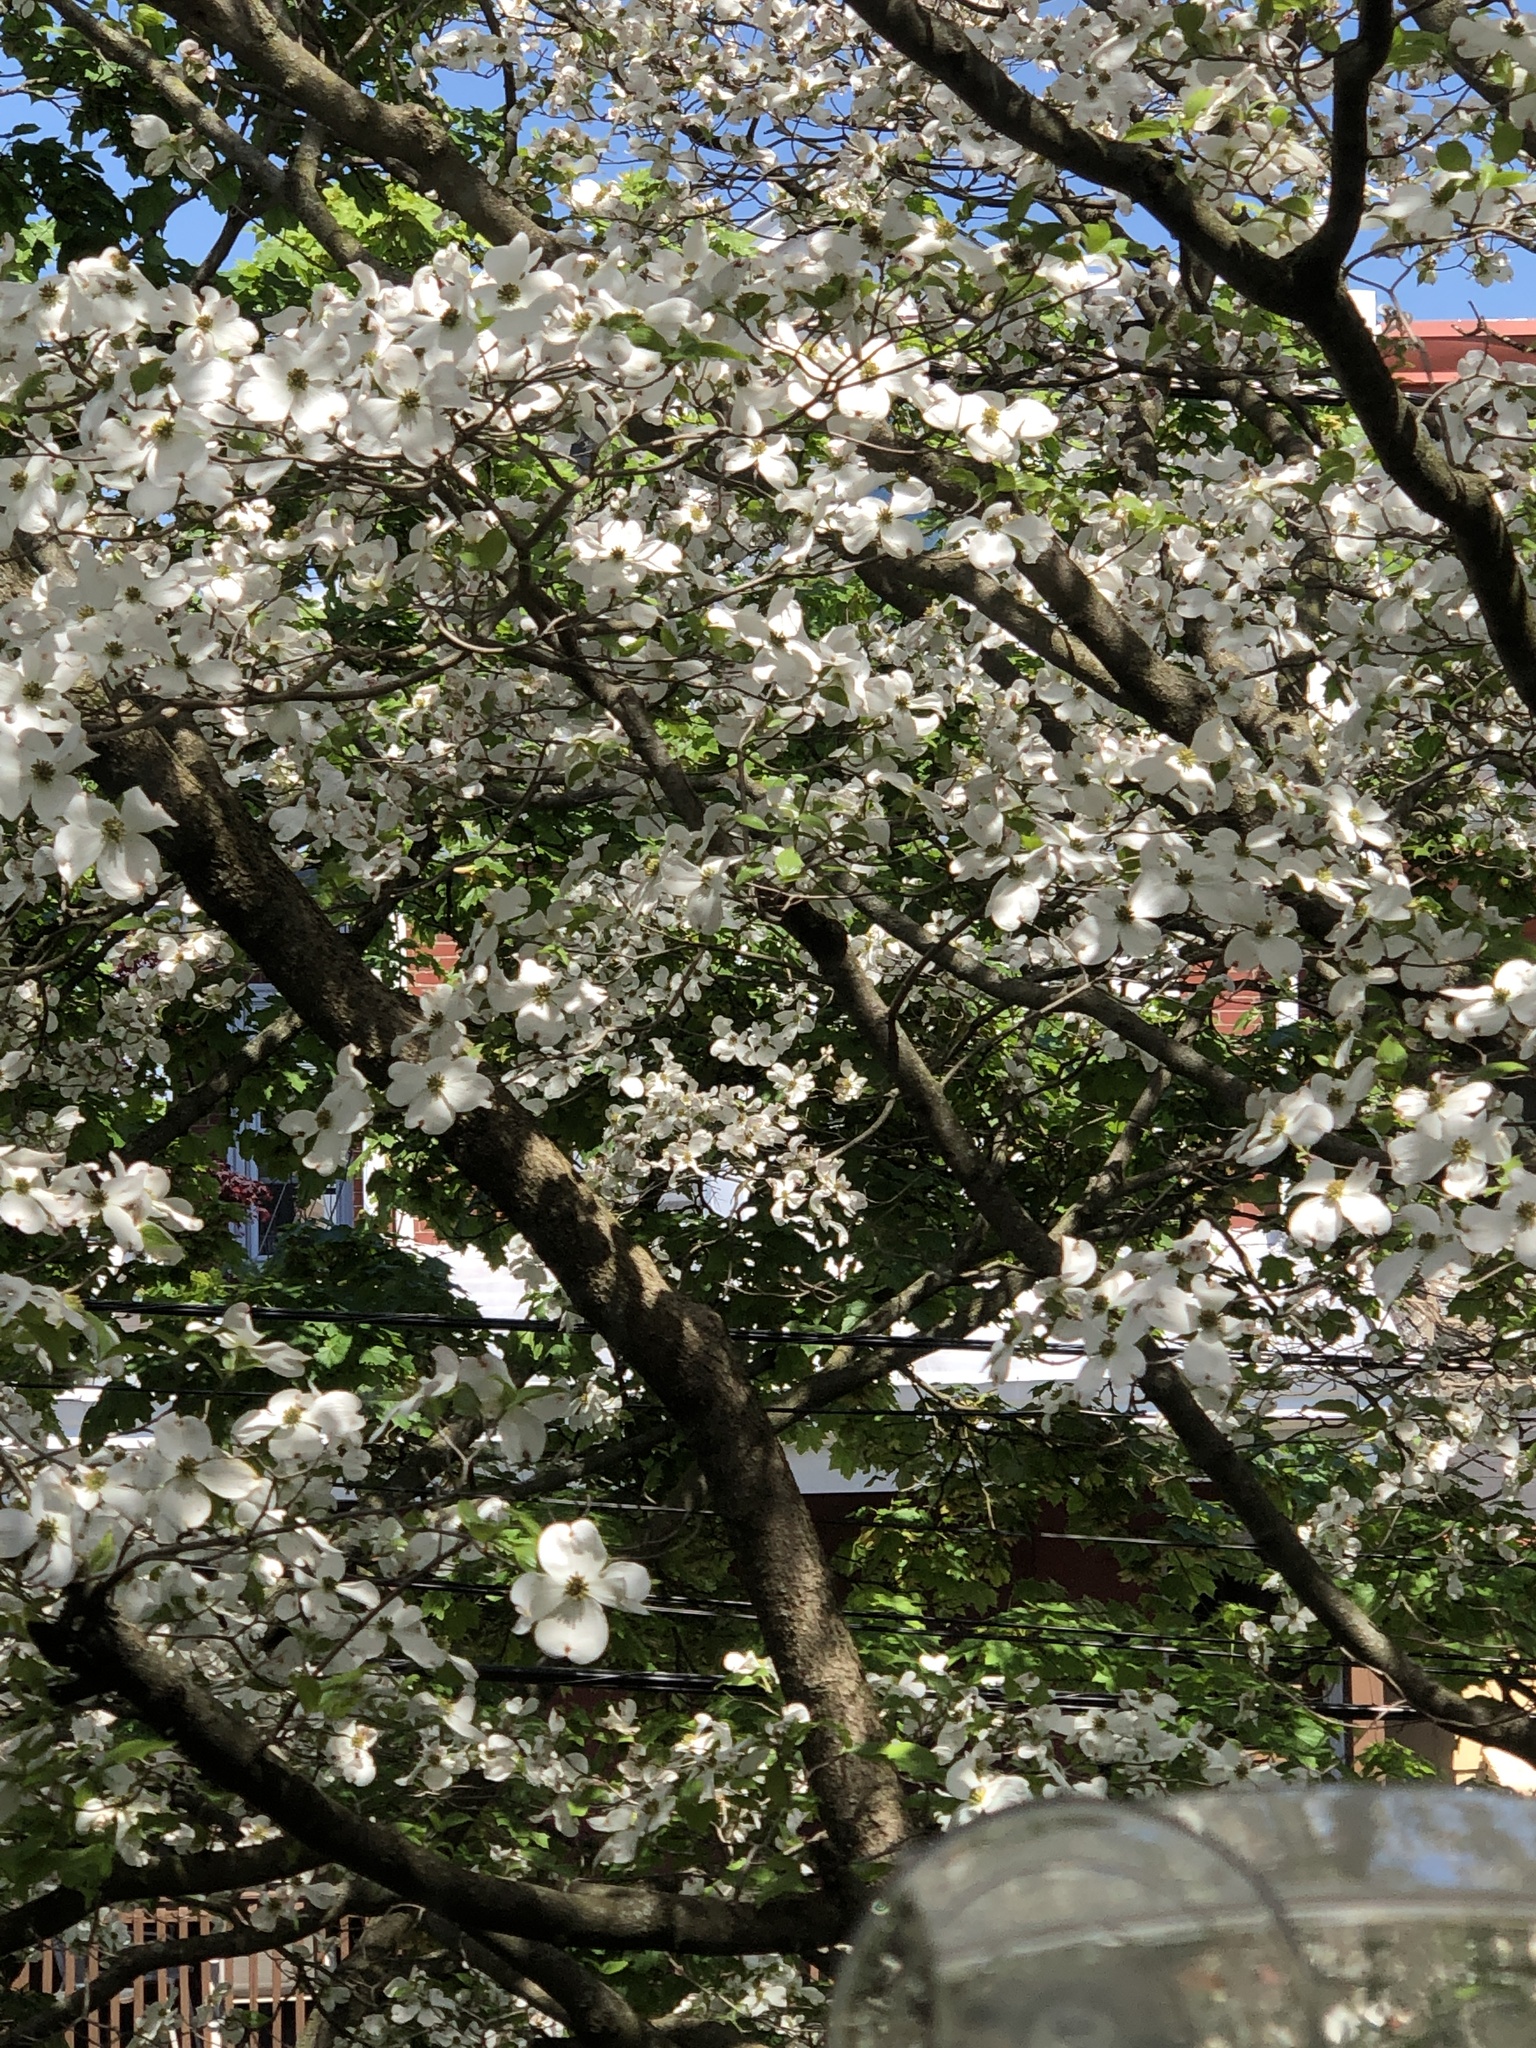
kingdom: Plantae
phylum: Tracheophyta
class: Magnoliopsida
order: Cornales
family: Cornaceae
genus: Cornus
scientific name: Cornus florida
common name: Flowering dogwood
